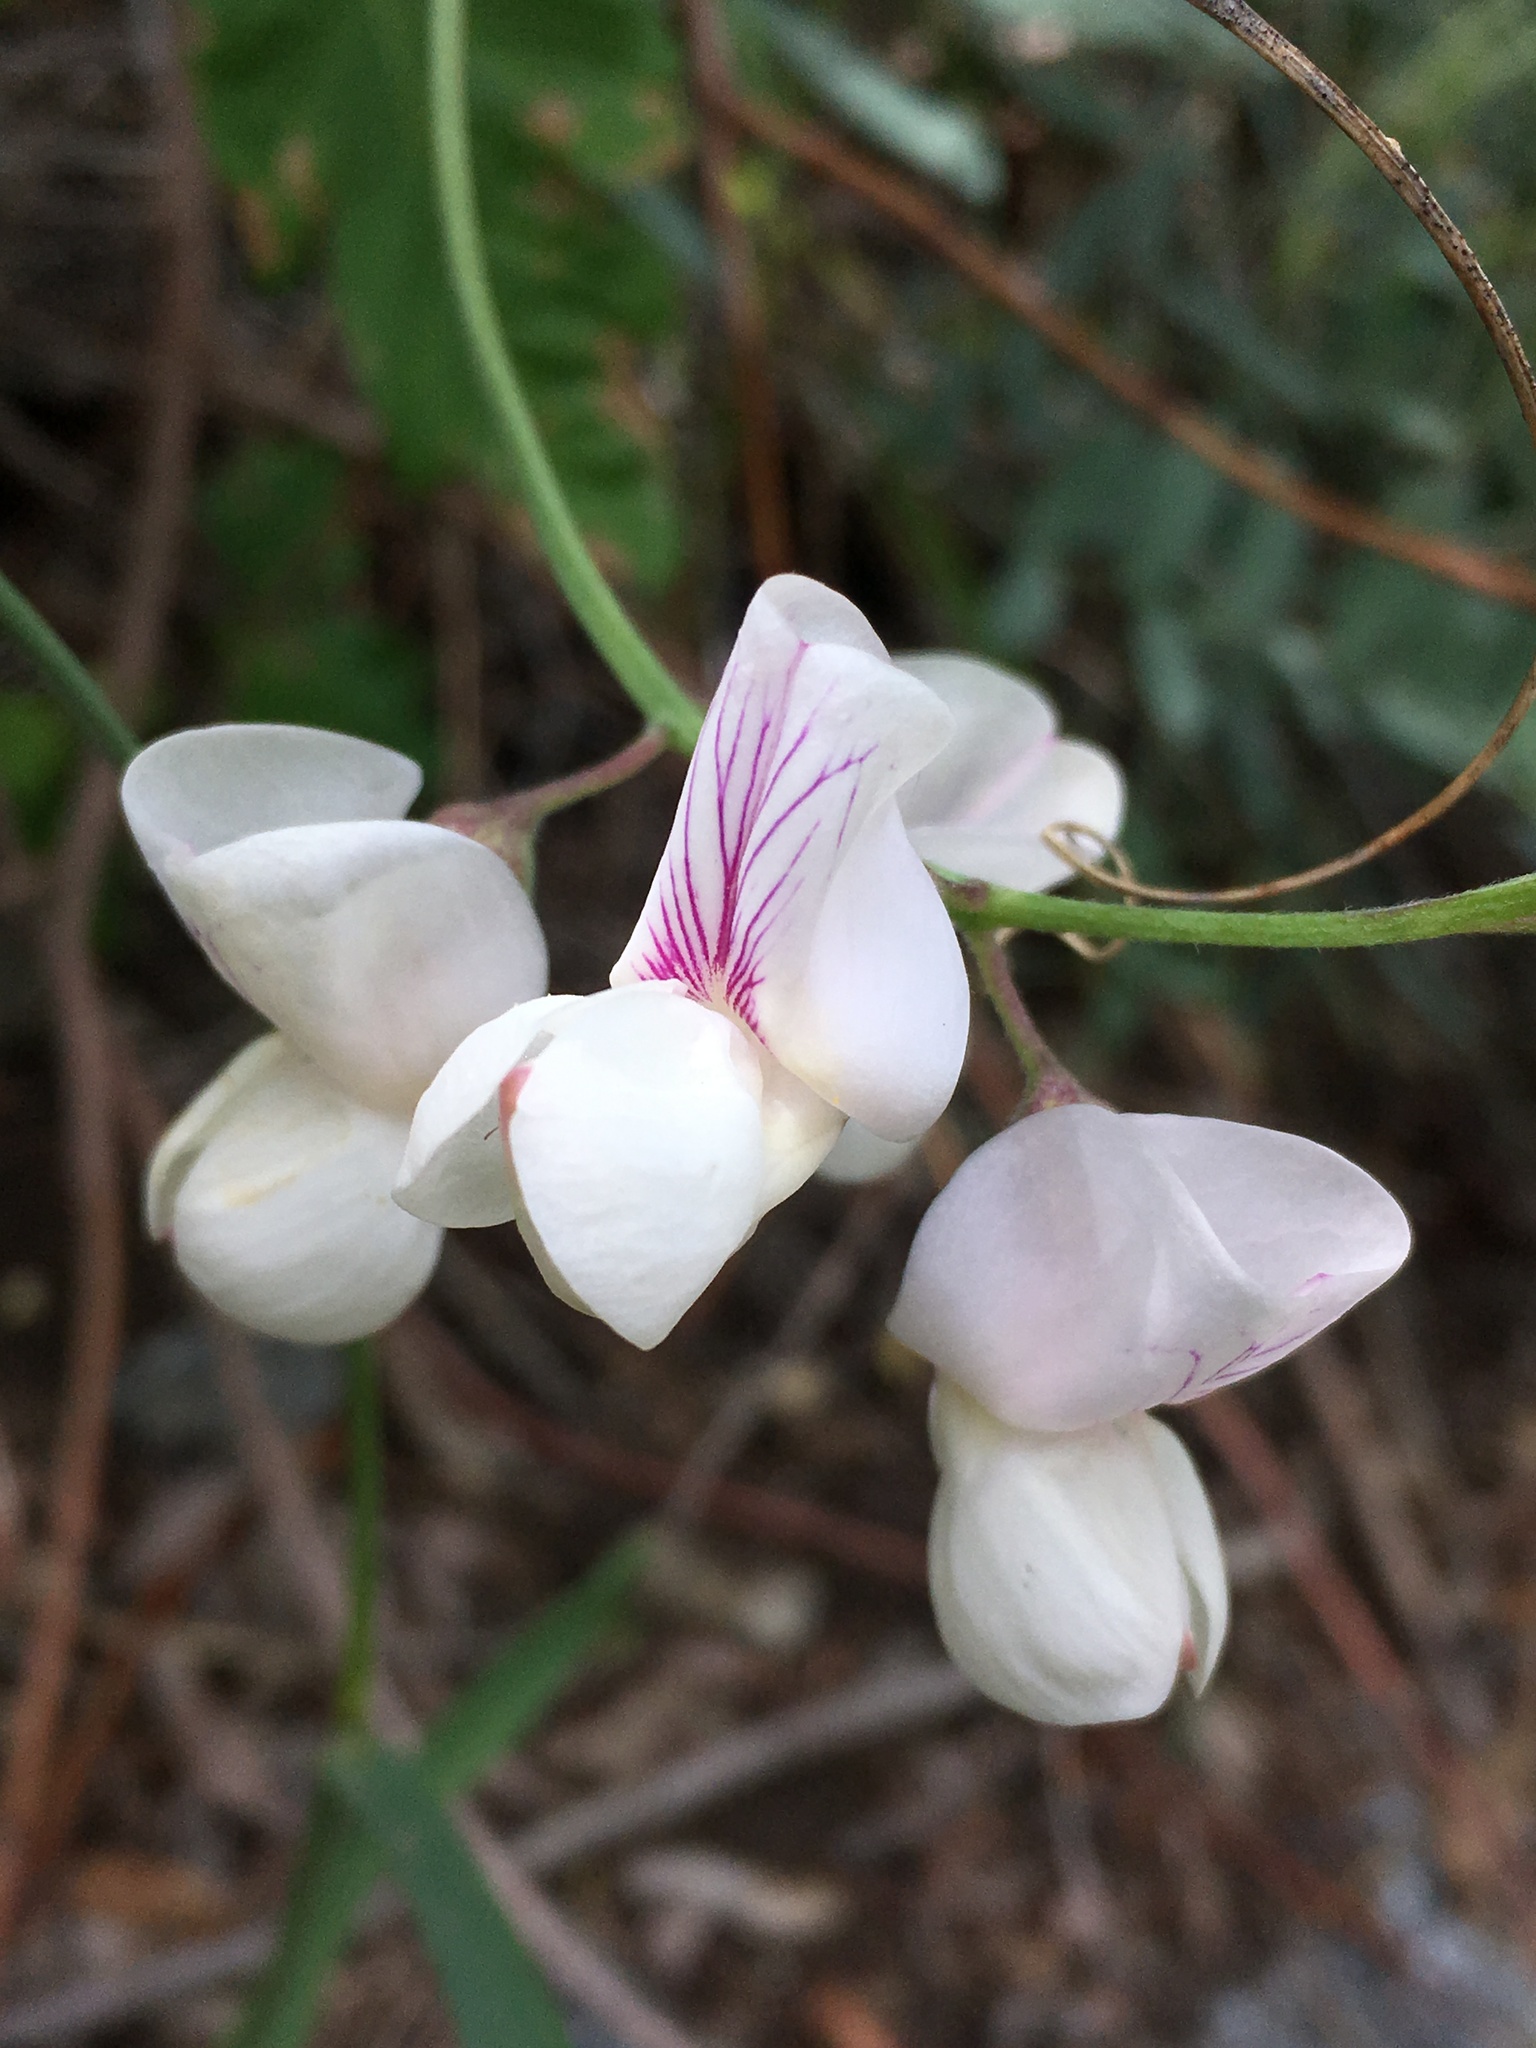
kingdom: Plantae
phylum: Tracheophyta
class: Magnoliopsida
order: Fabales
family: Fabaceae
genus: Lathyrus
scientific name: Lathyrus vestitus
